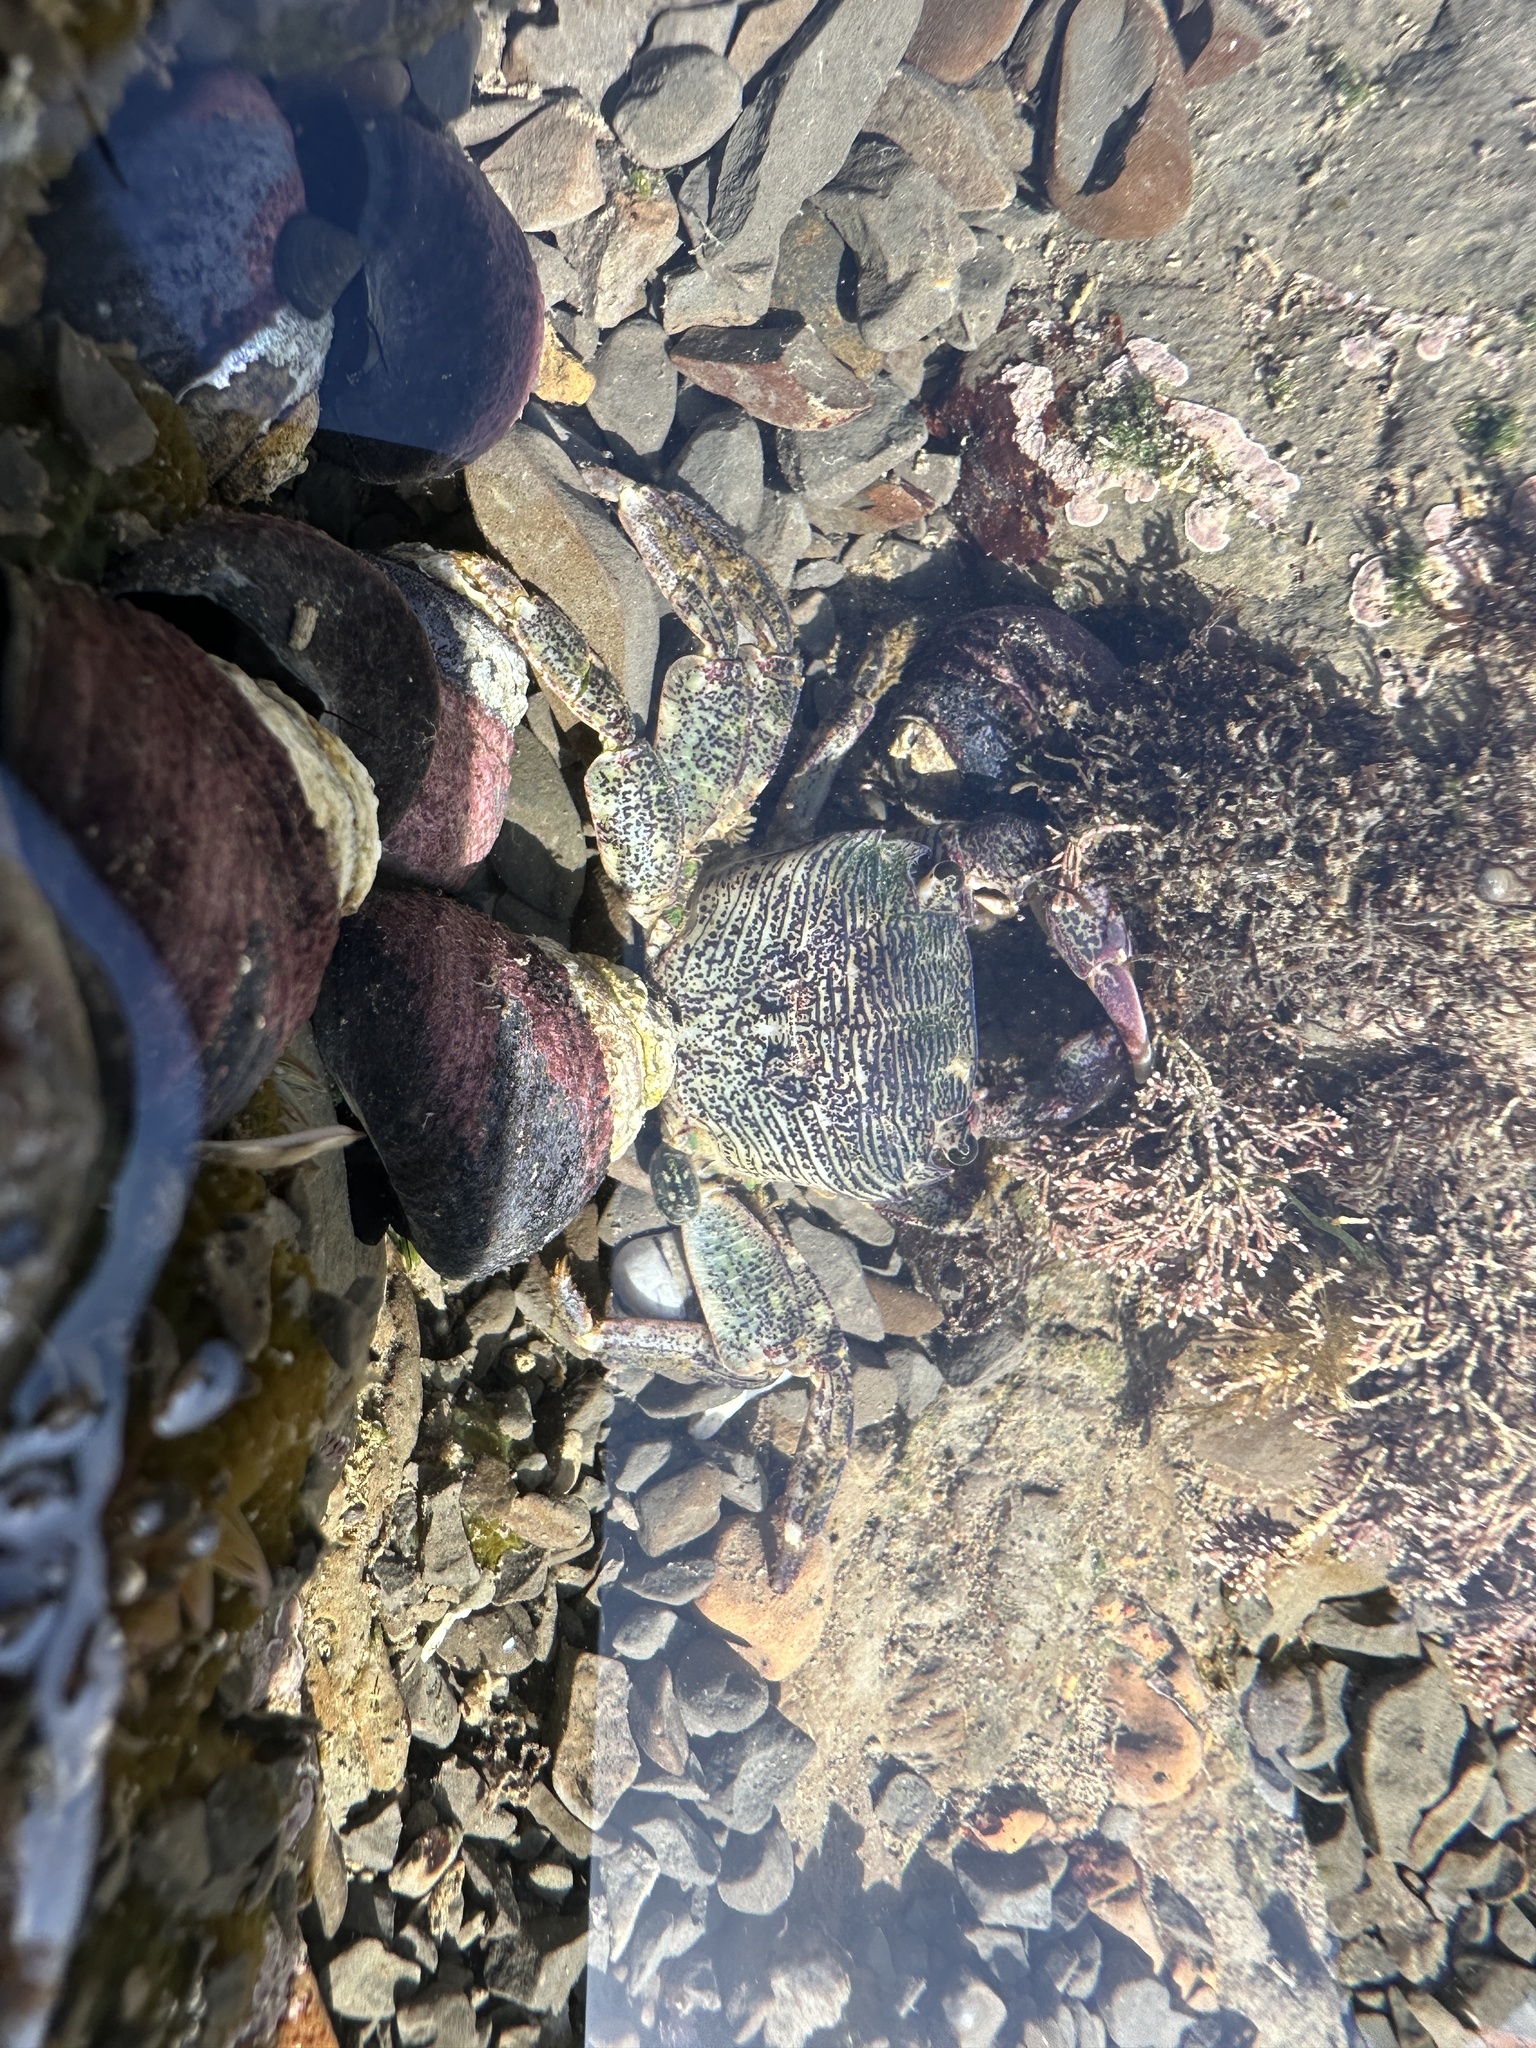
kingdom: Animalia
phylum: Arthropoda
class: Malacostraca
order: Decapoda
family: Grapsidae
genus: Pachygrapsus
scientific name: Pachygrapsus crassipes
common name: Striped shore crab
